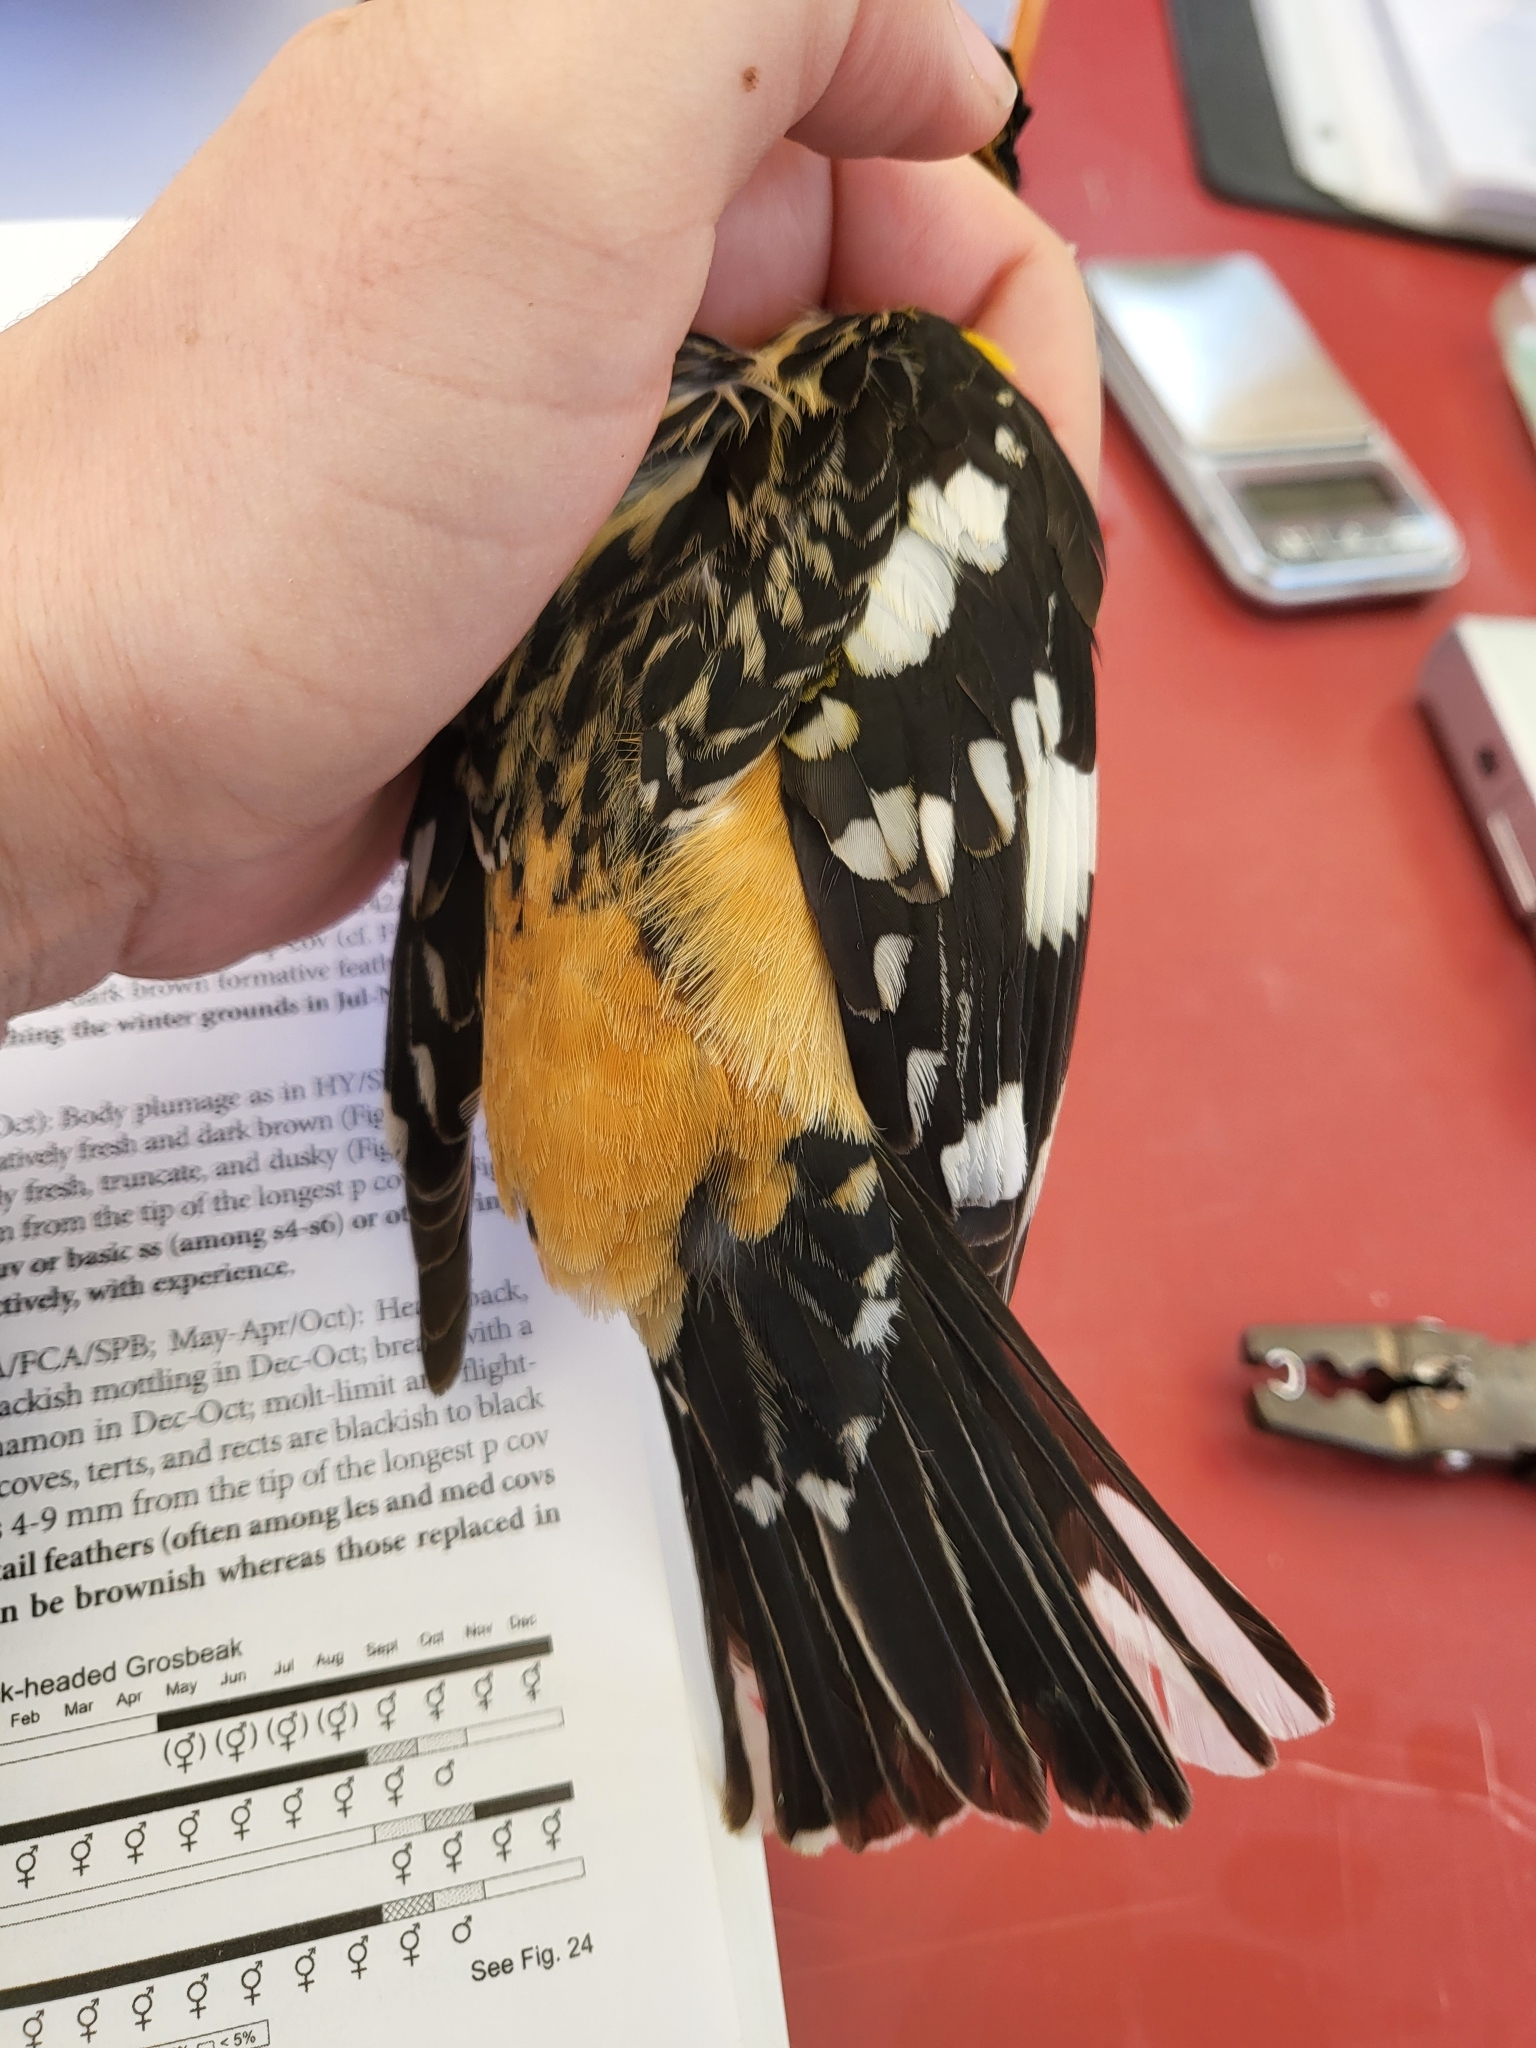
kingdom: Animalia
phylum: Chordata
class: Aves
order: Passeriformes
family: Cardinalidae
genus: Pheucticus
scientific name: Pheucticus melanocephalus
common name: Black-headed grosbeak
